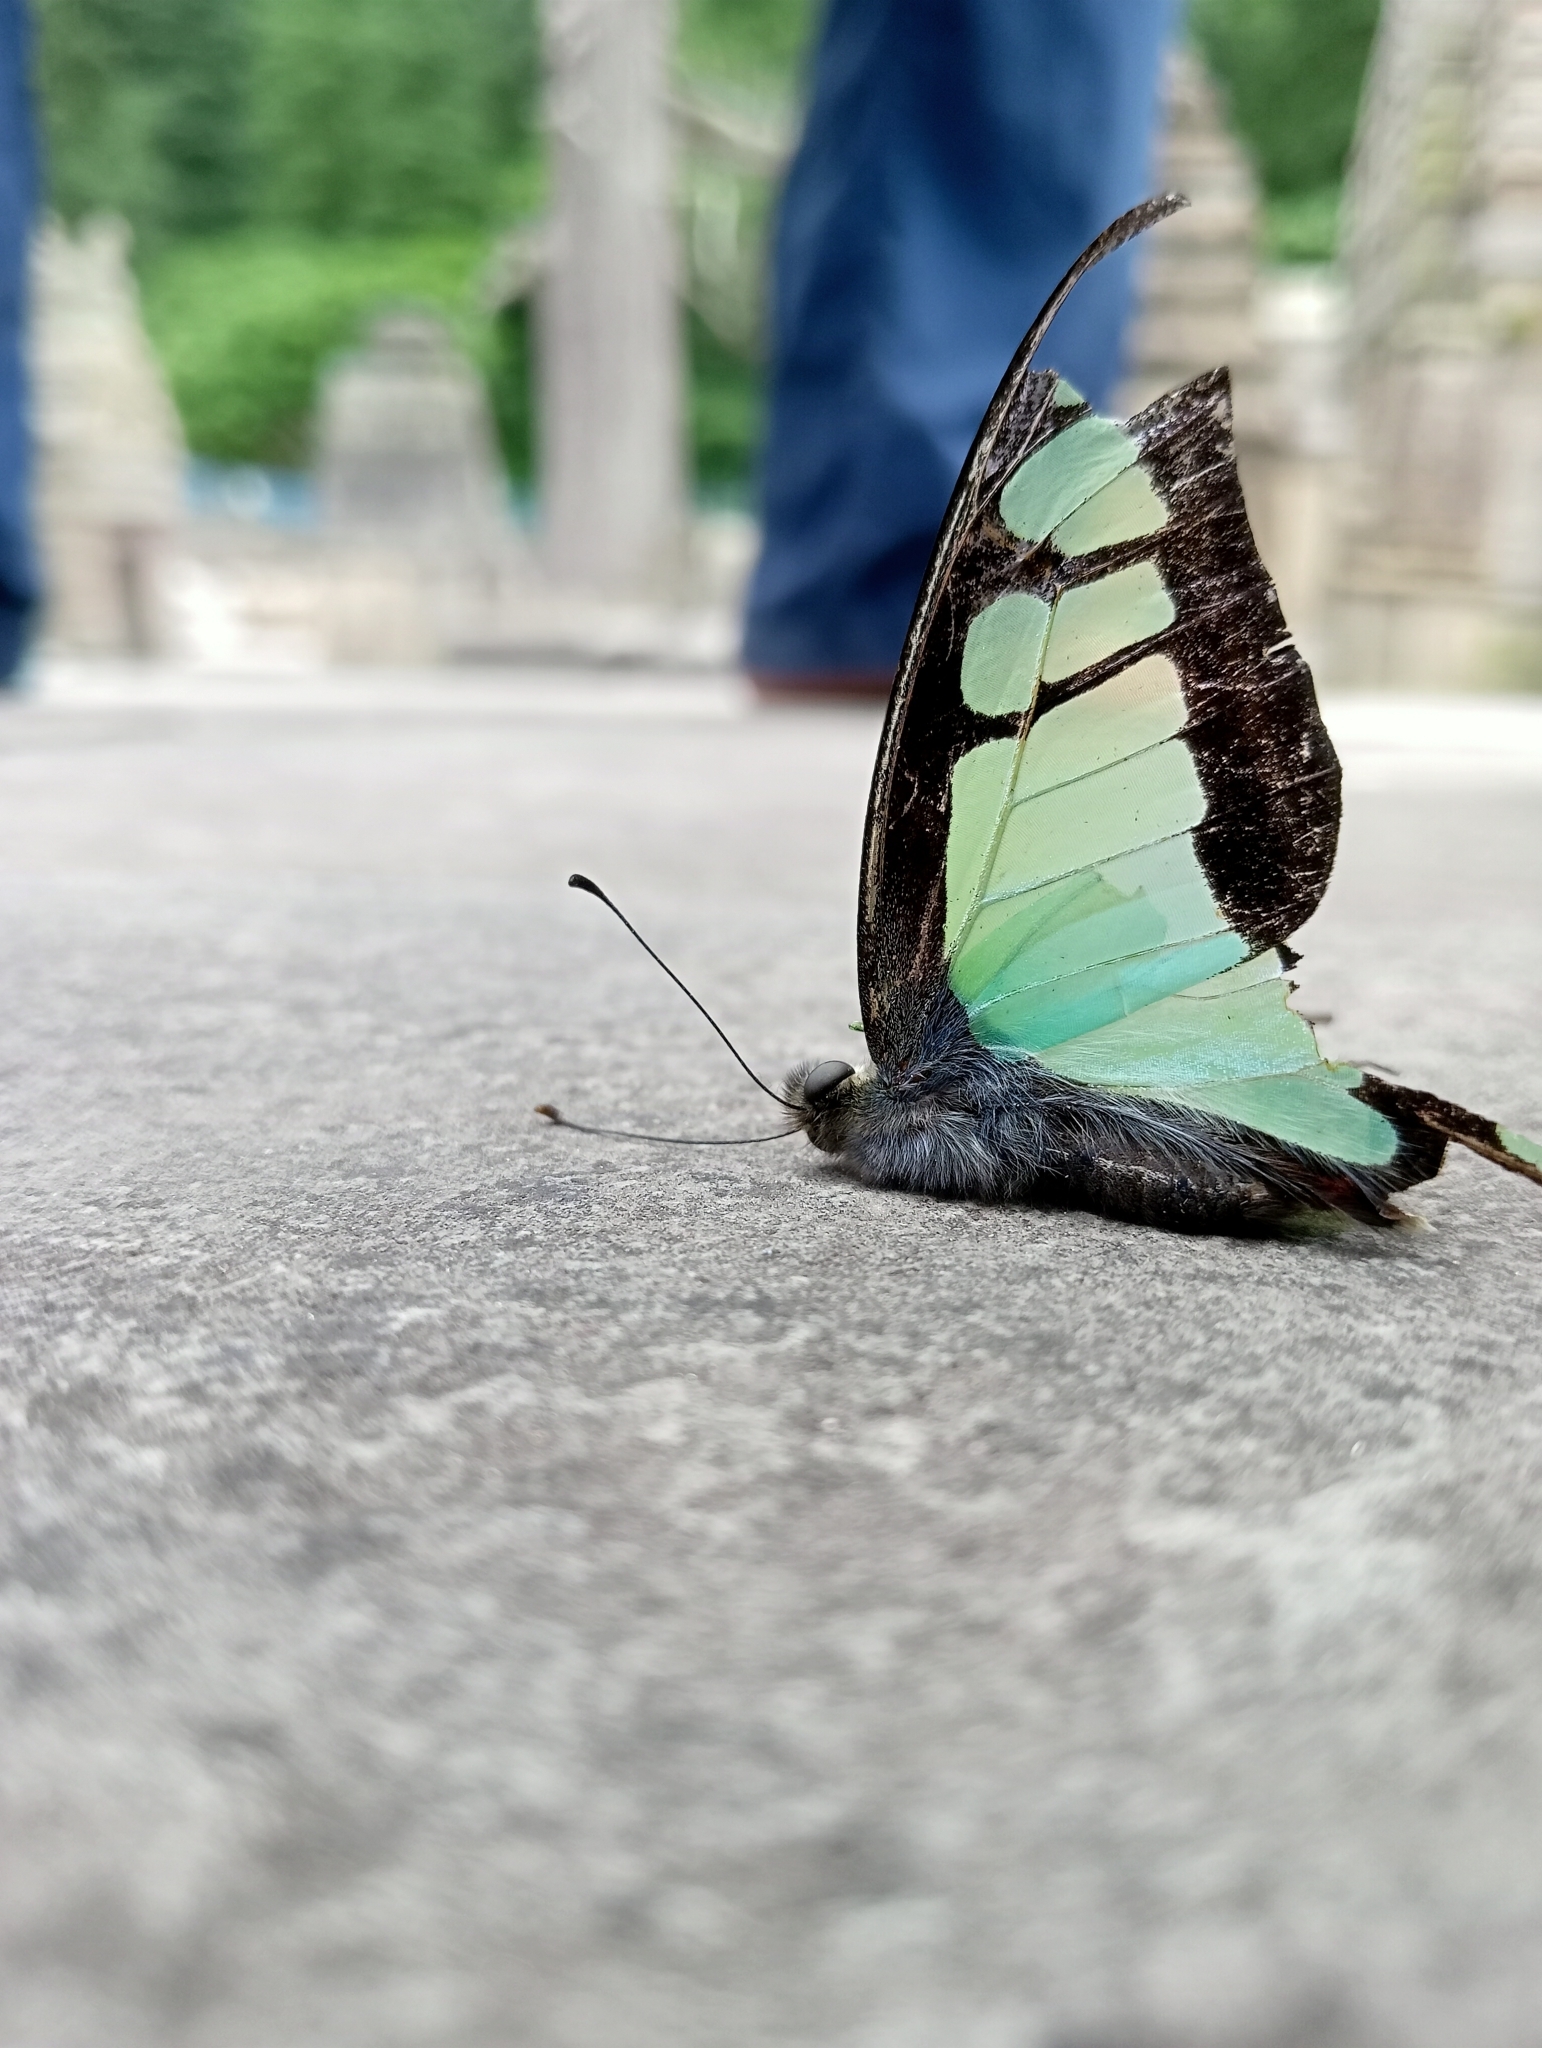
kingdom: Animalia
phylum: Arthropoda
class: Insecta
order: Lepidoptera
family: Papilionidae
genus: Graphium
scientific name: Graphium cloanthus
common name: Glassy bluebottle
